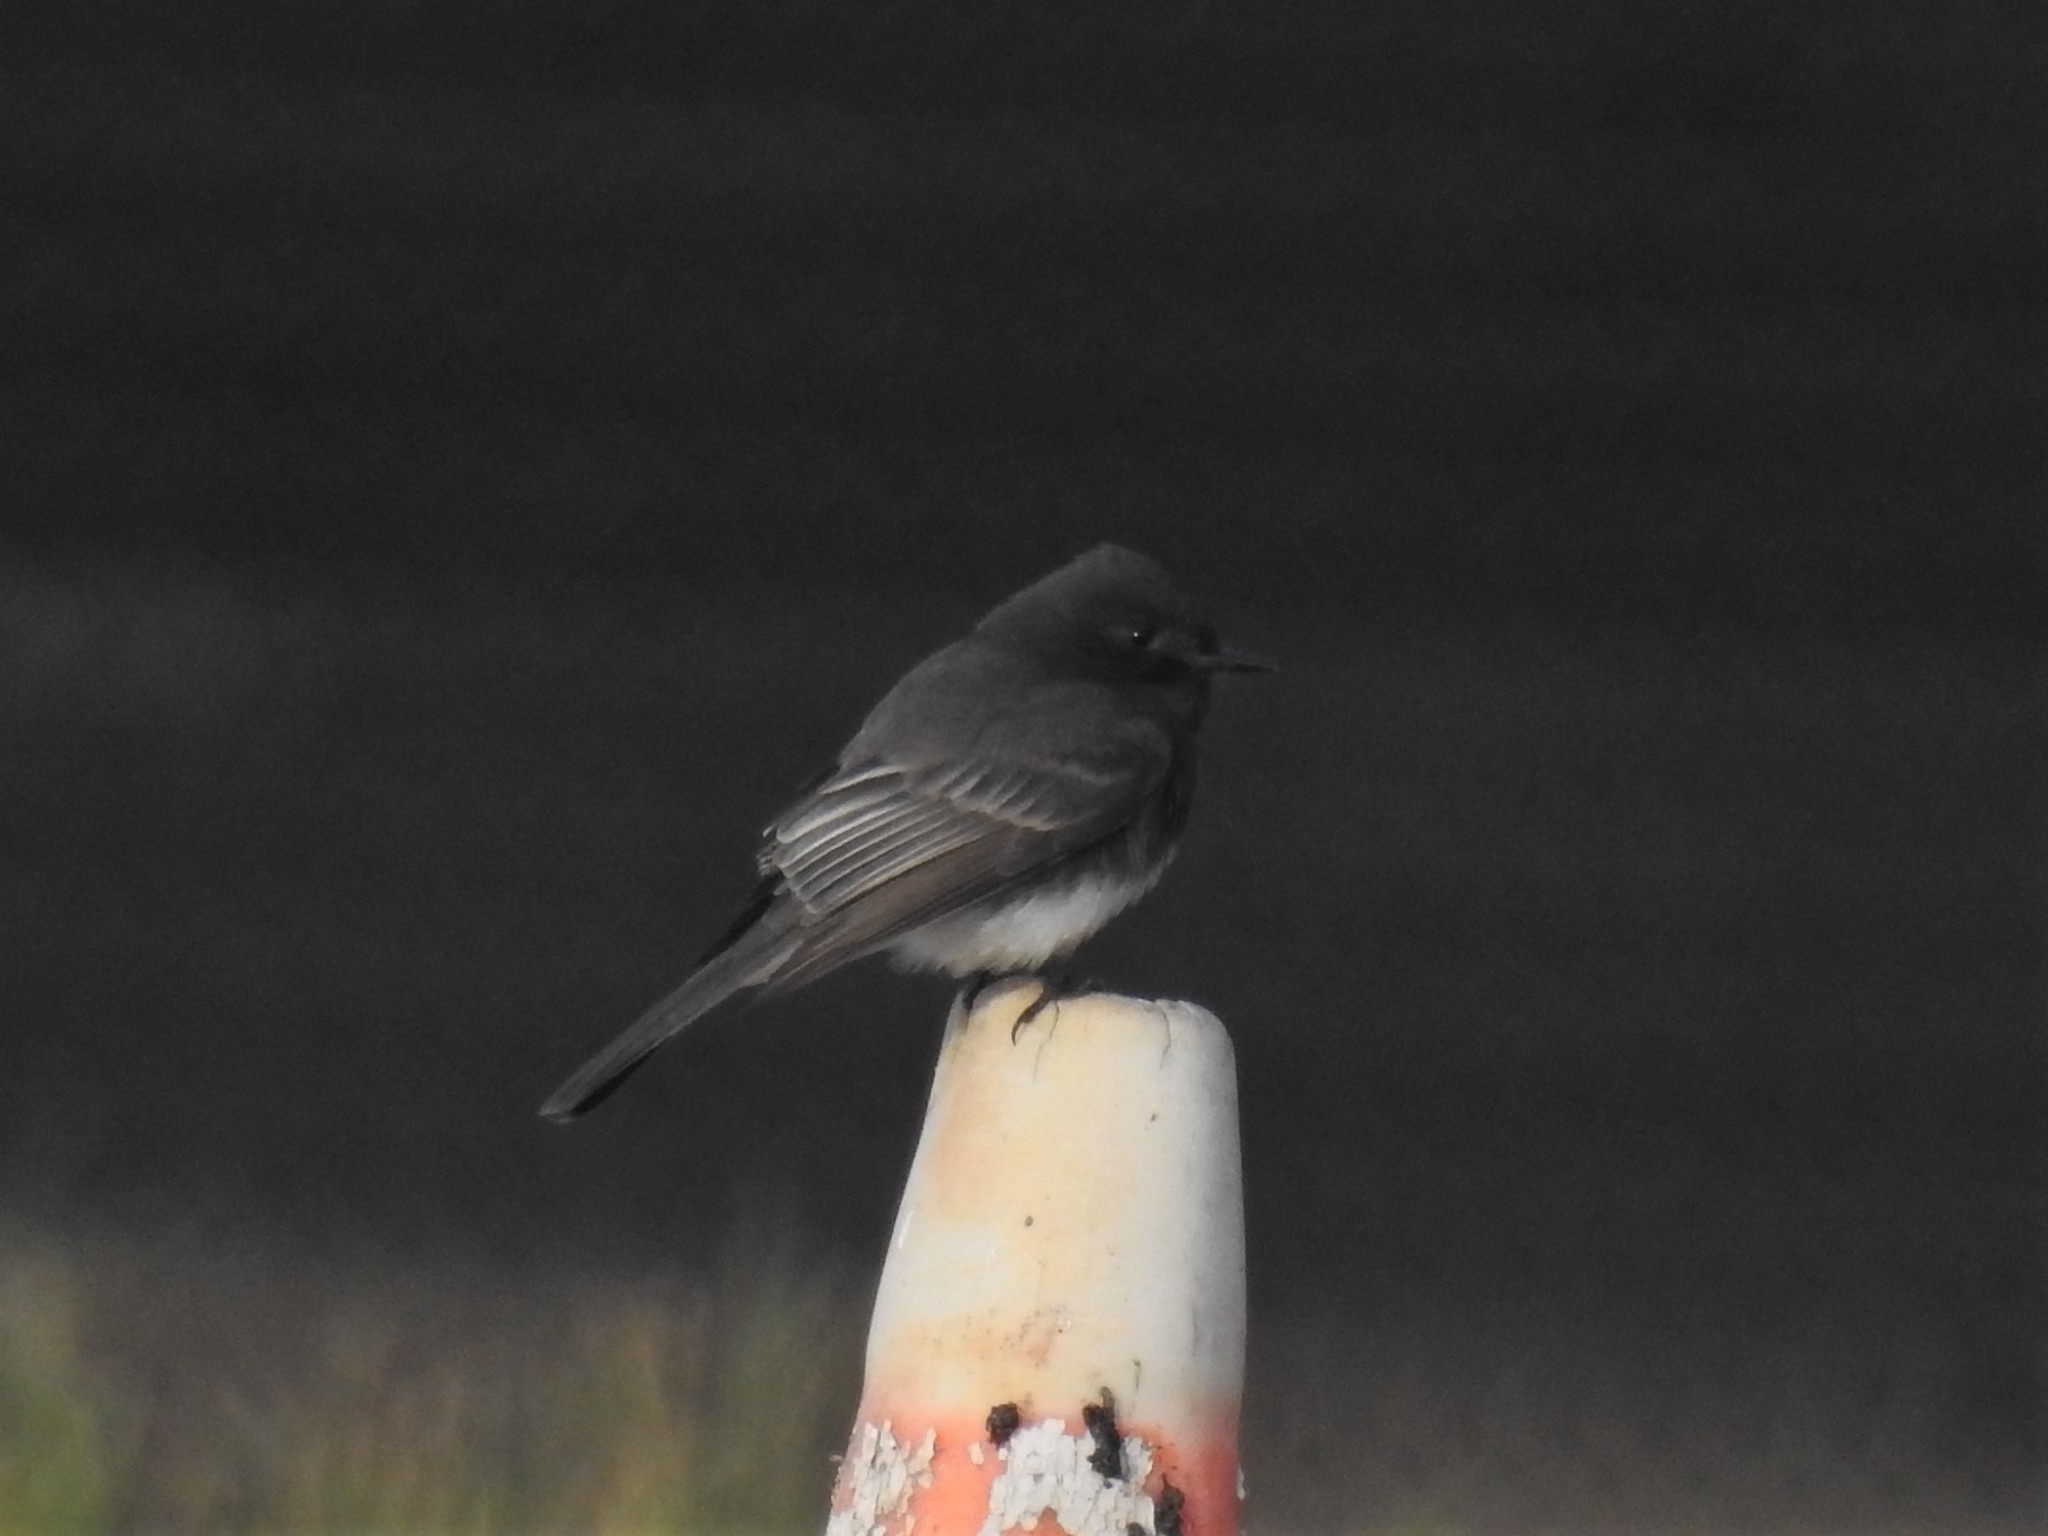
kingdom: Animalia
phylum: Chordata
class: Aves
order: Passeriformes
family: Tyrannidae
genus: Sayornis
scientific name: Sayornis nigricans
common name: Black phoebe
